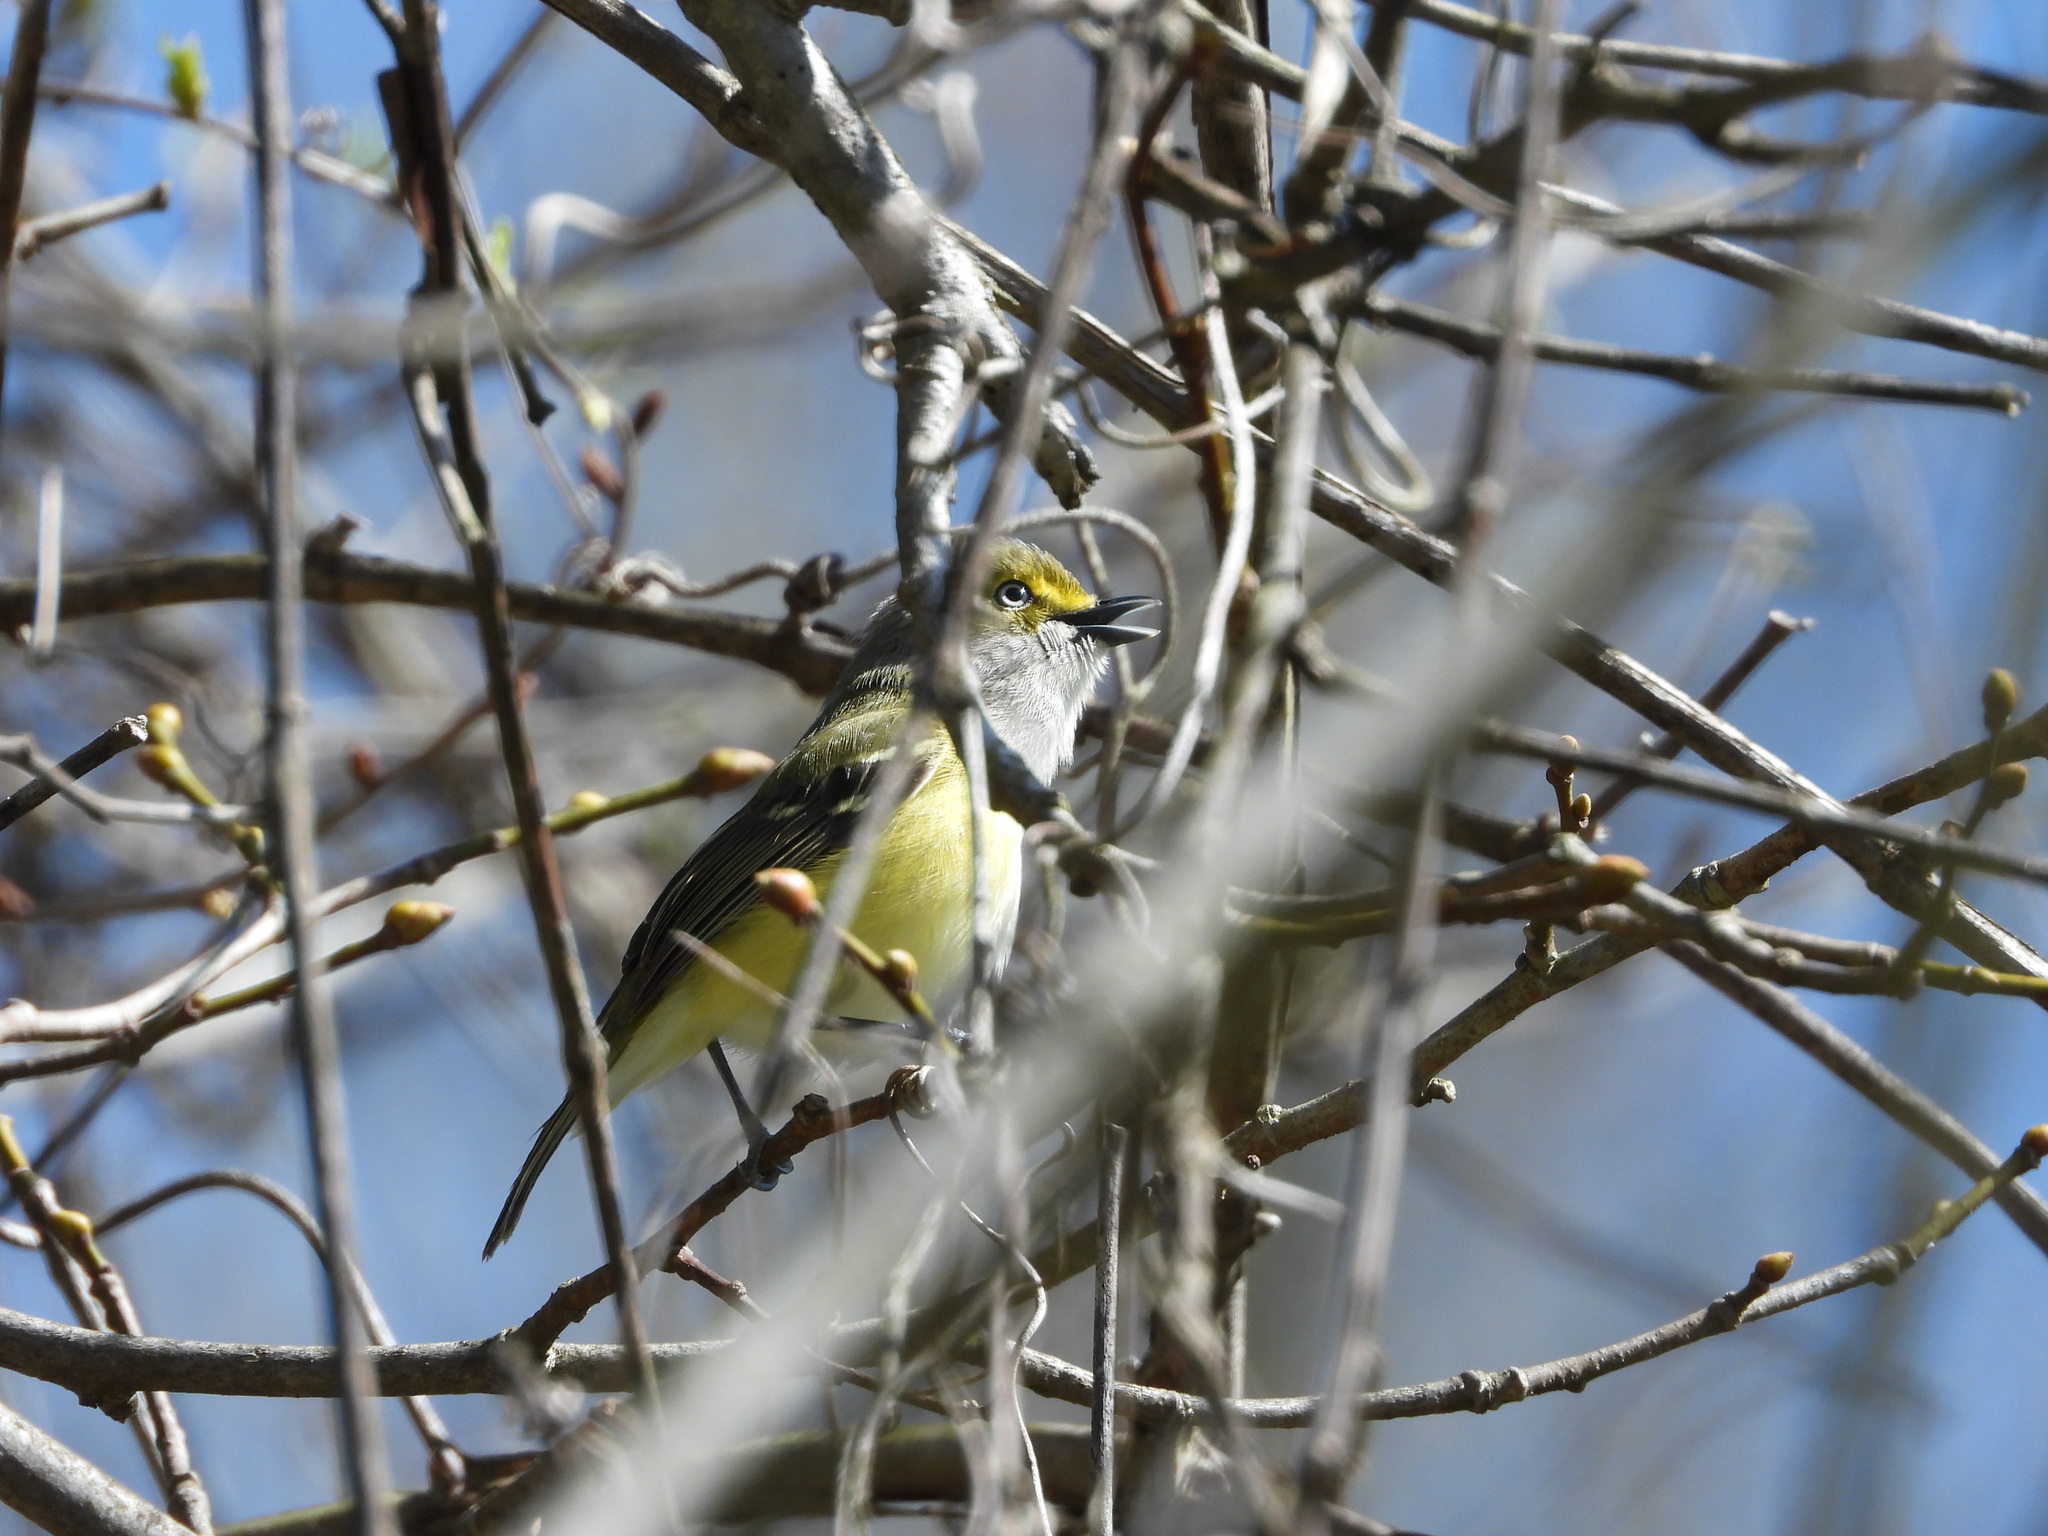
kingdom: Animalia
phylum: Chordata
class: Aves
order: Passeriformes
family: Vireonidae
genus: Vireo
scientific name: Vireo griseus
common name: White-eyed vireo
